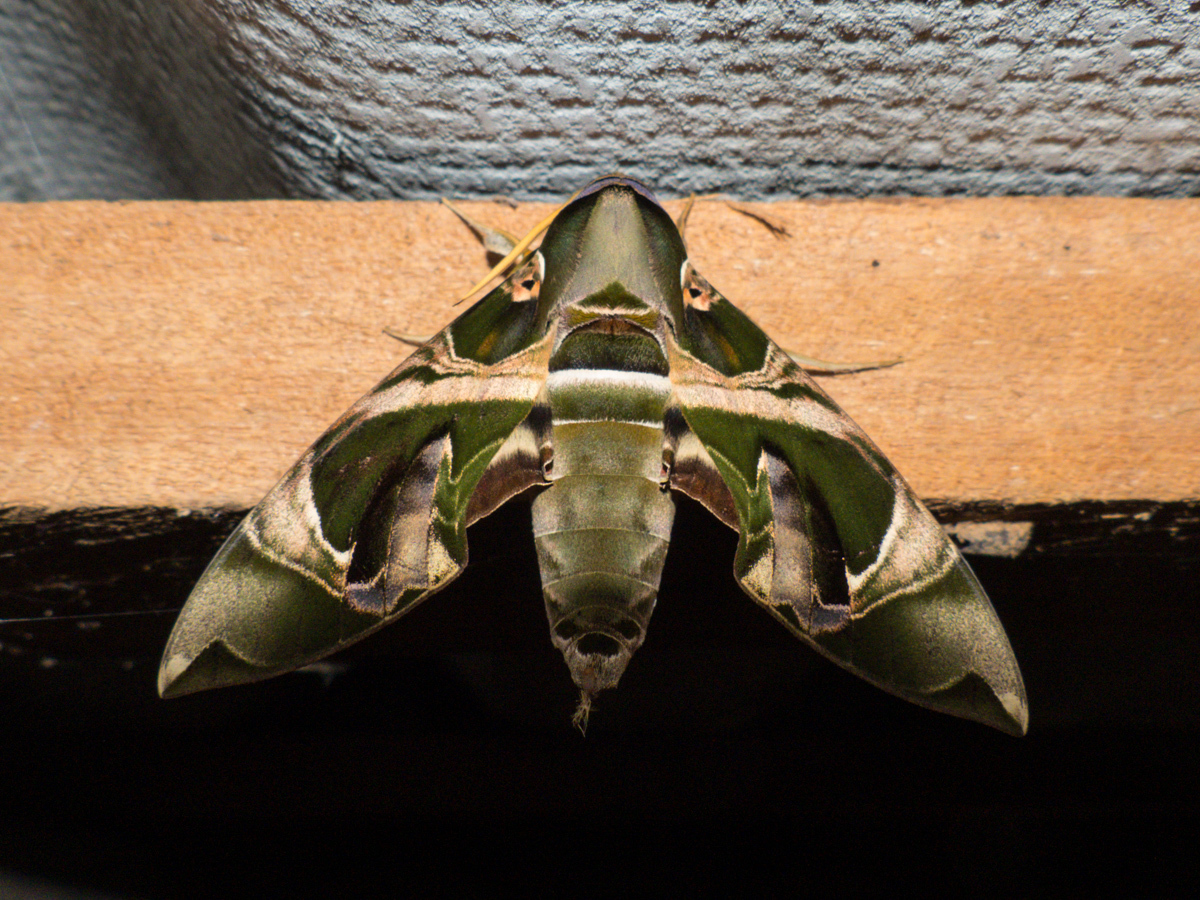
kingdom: Animalia
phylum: Arthropoda
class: Insecta
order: Lepidoptera
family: Sphingidae
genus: Daphnis
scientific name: Daphnis hypothous
